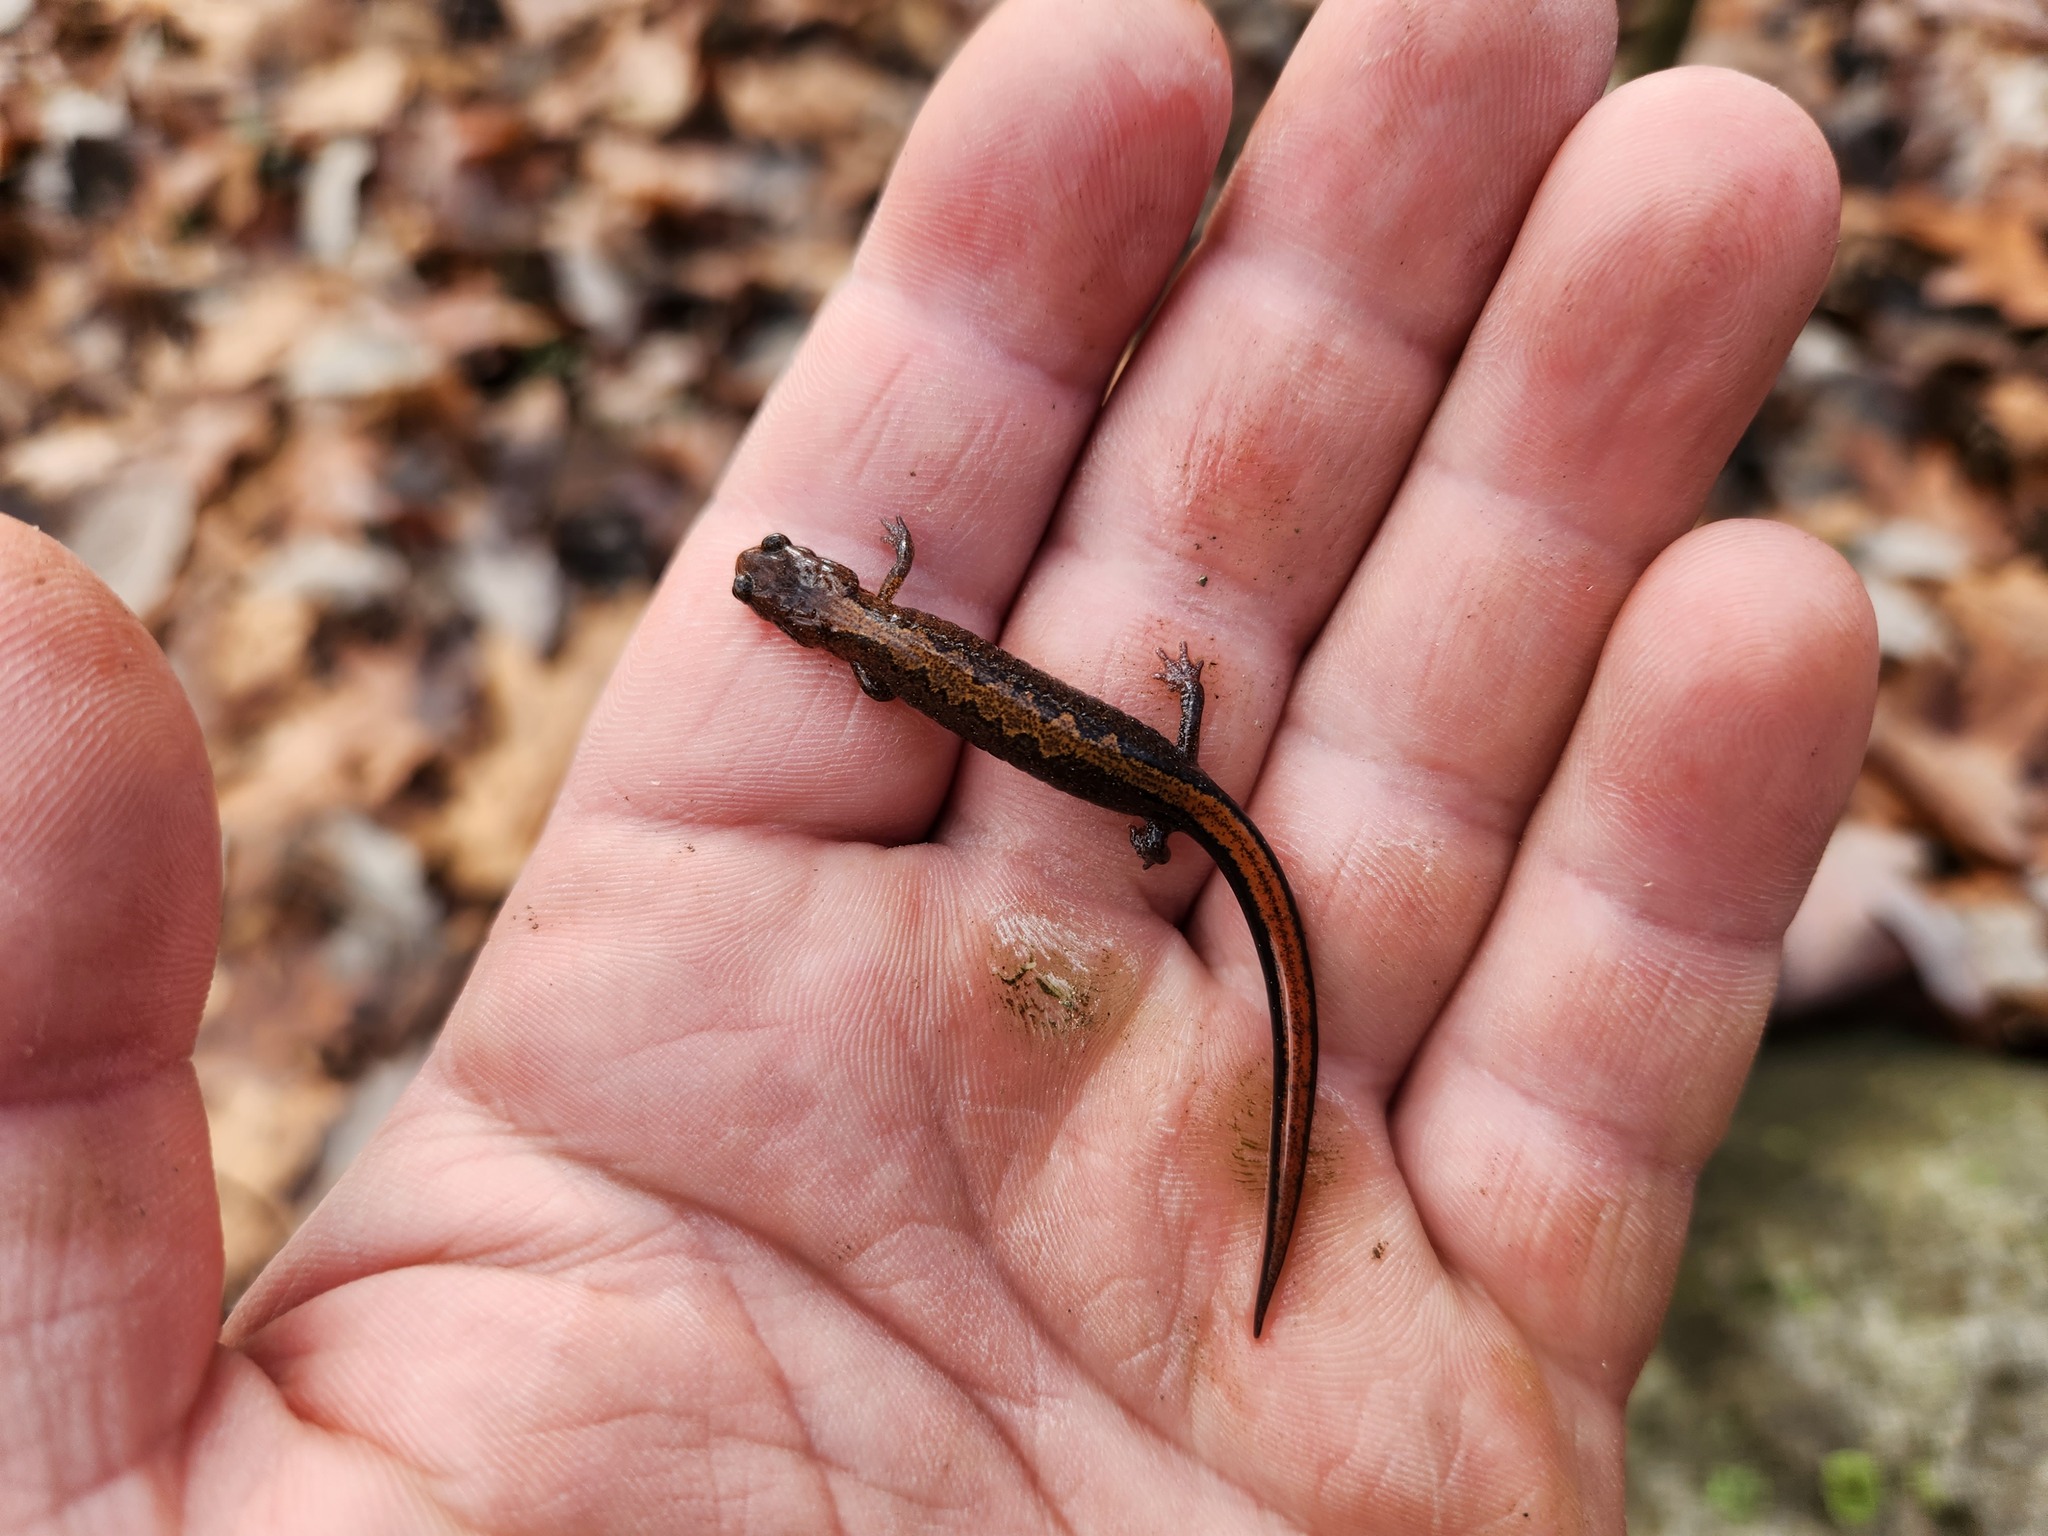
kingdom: Animalia
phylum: Chordata
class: Amphibia
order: Caudata
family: Plethodontidae
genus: Plethodon
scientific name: Plethodon dorsalis
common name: Northern zigzag salamander
